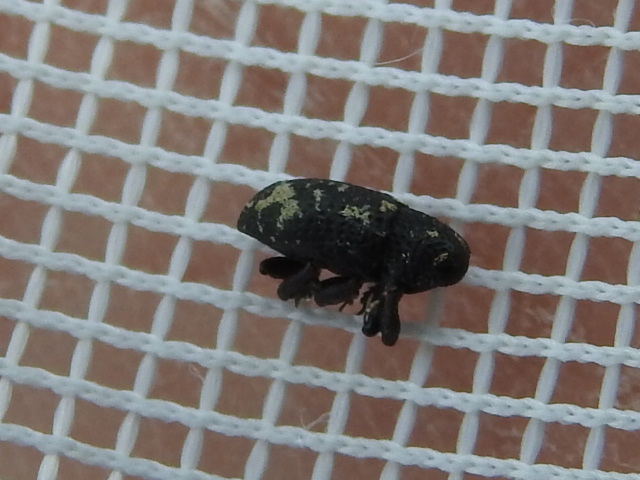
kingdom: Animalia
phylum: Arthropoda
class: Insecta
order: Coleoptera
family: Curculionidae
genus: Tyloderma
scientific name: Tyloderma foveolatum
